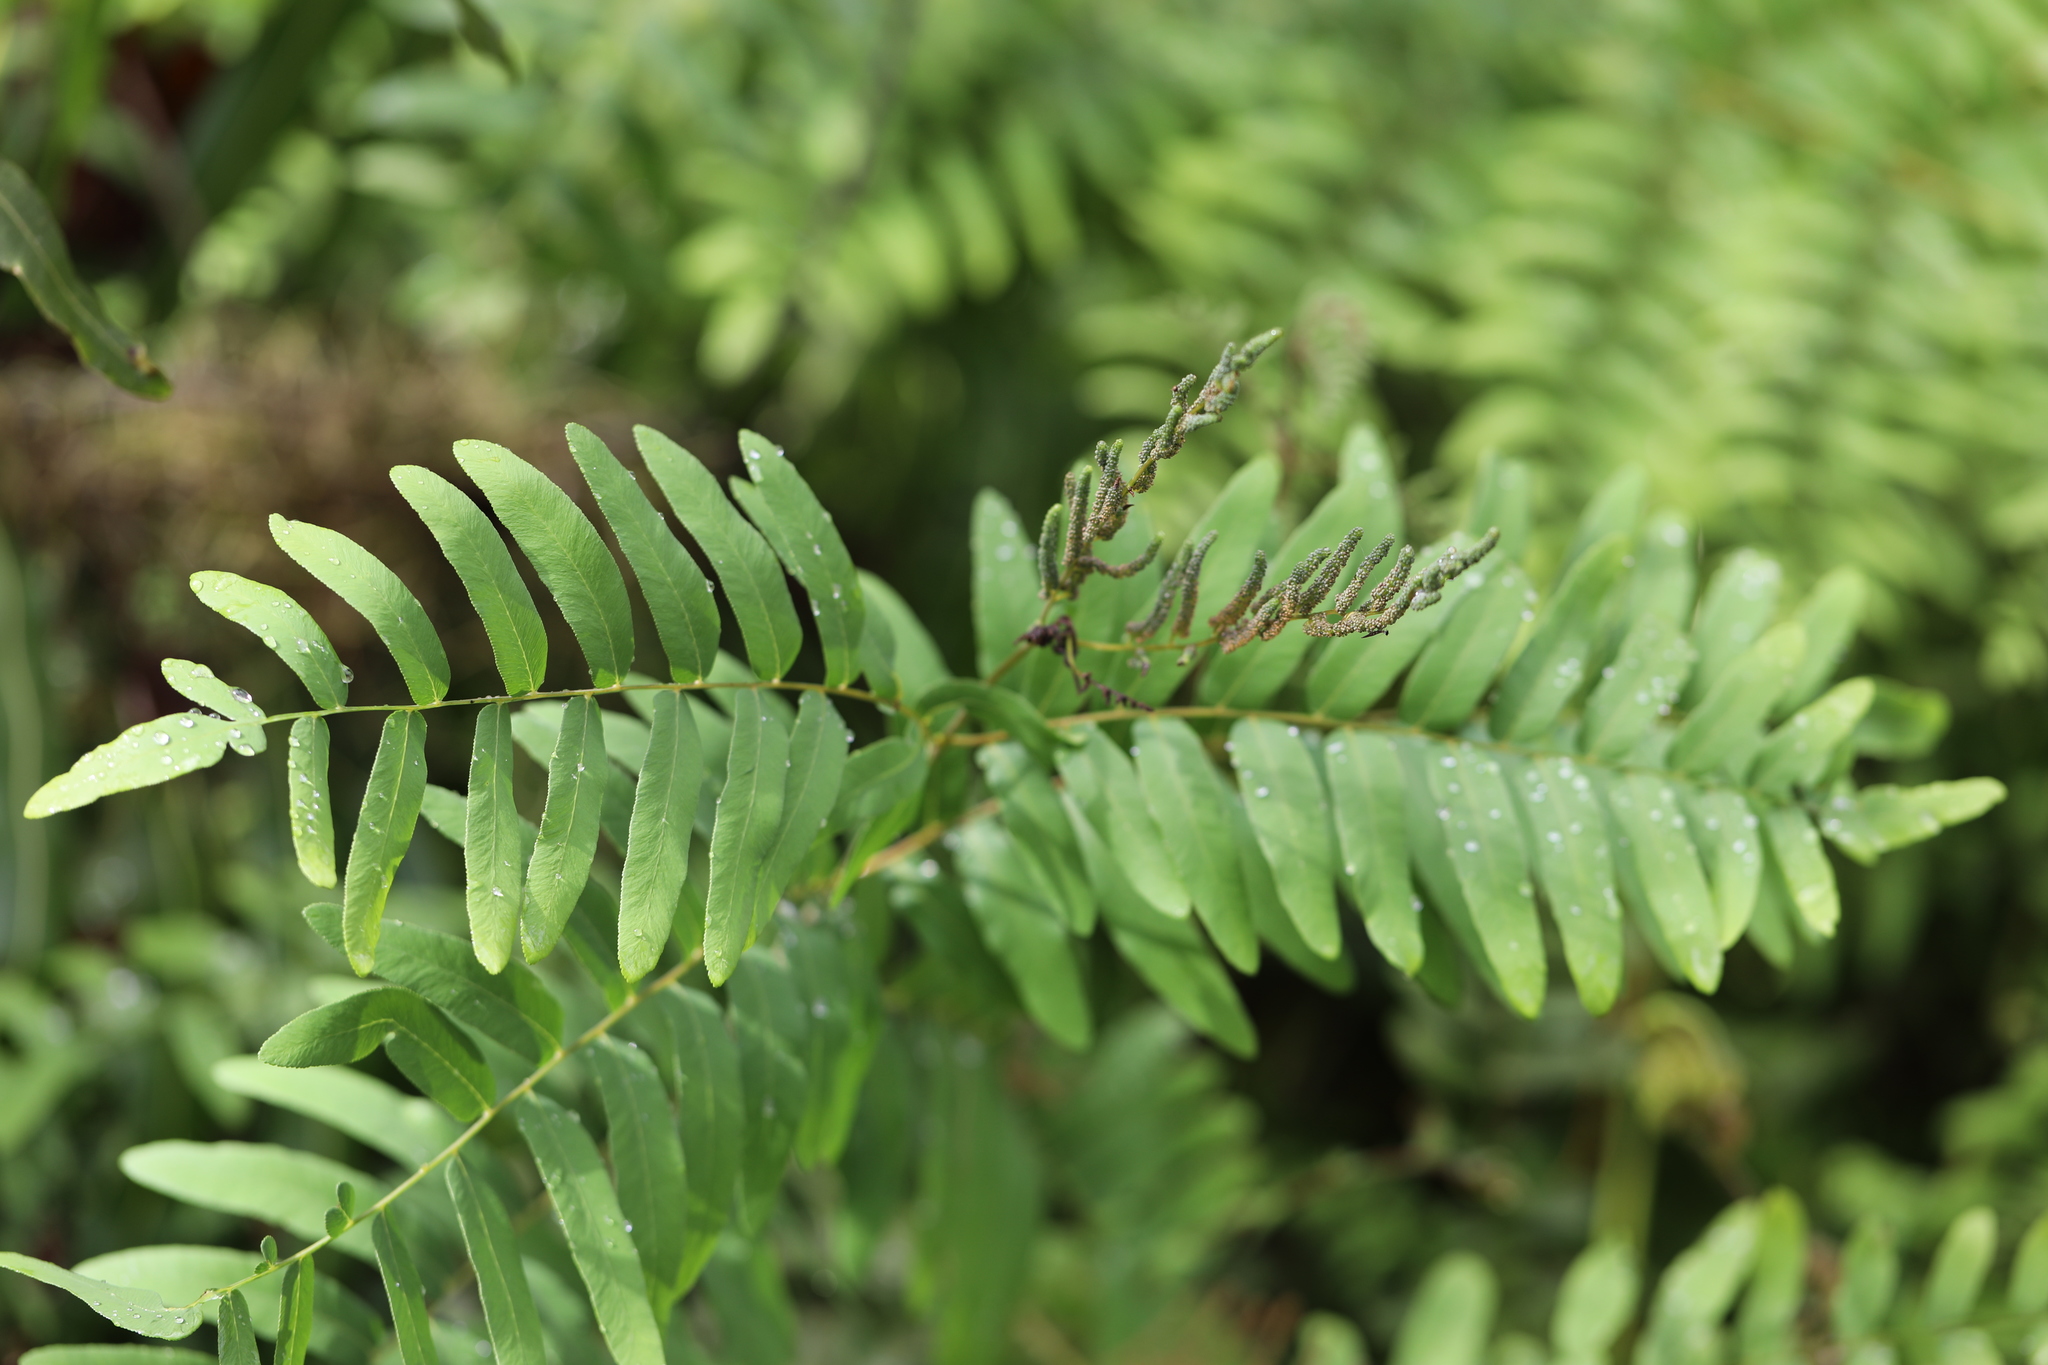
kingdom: Plantae
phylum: Tracheophyta
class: Polypodiopsida
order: Osmundales
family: Osmundaceae
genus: Osmunda
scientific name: Osmunda spectabilis
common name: American royal fern
